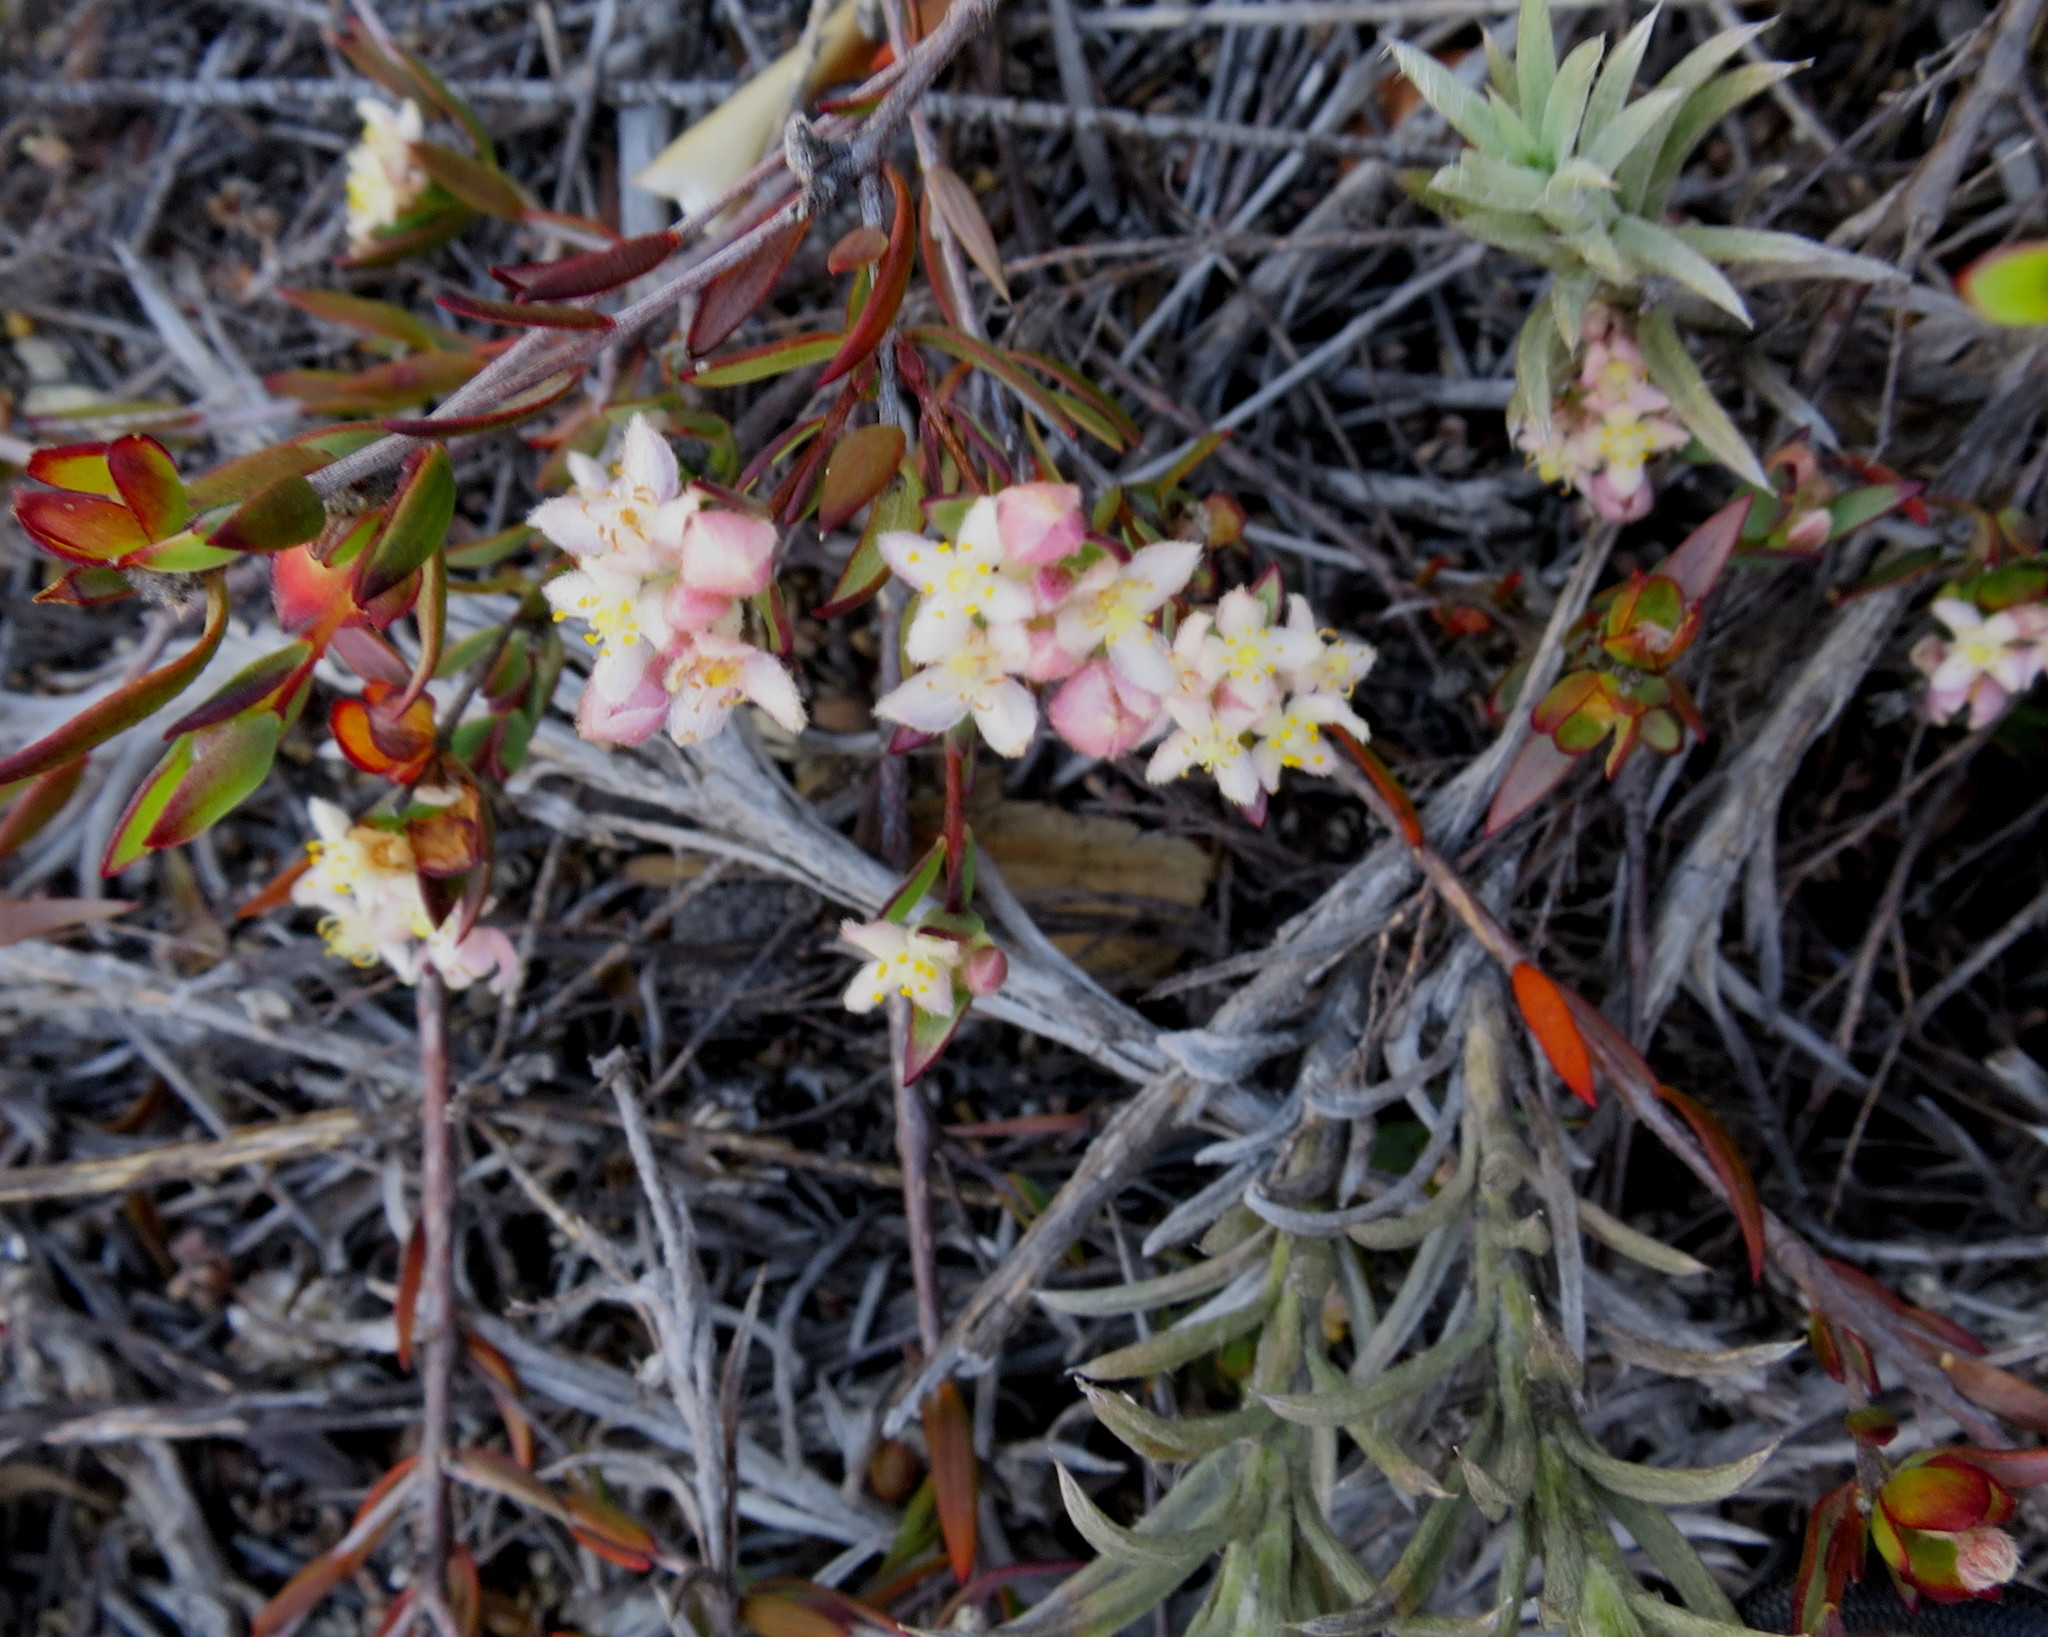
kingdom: Plantae
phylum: Tracheophyta
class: Magnoliopsida
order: Malvales
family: Thymelaeaceae
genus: Lachnaea
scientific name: Lachnaea burchellii
